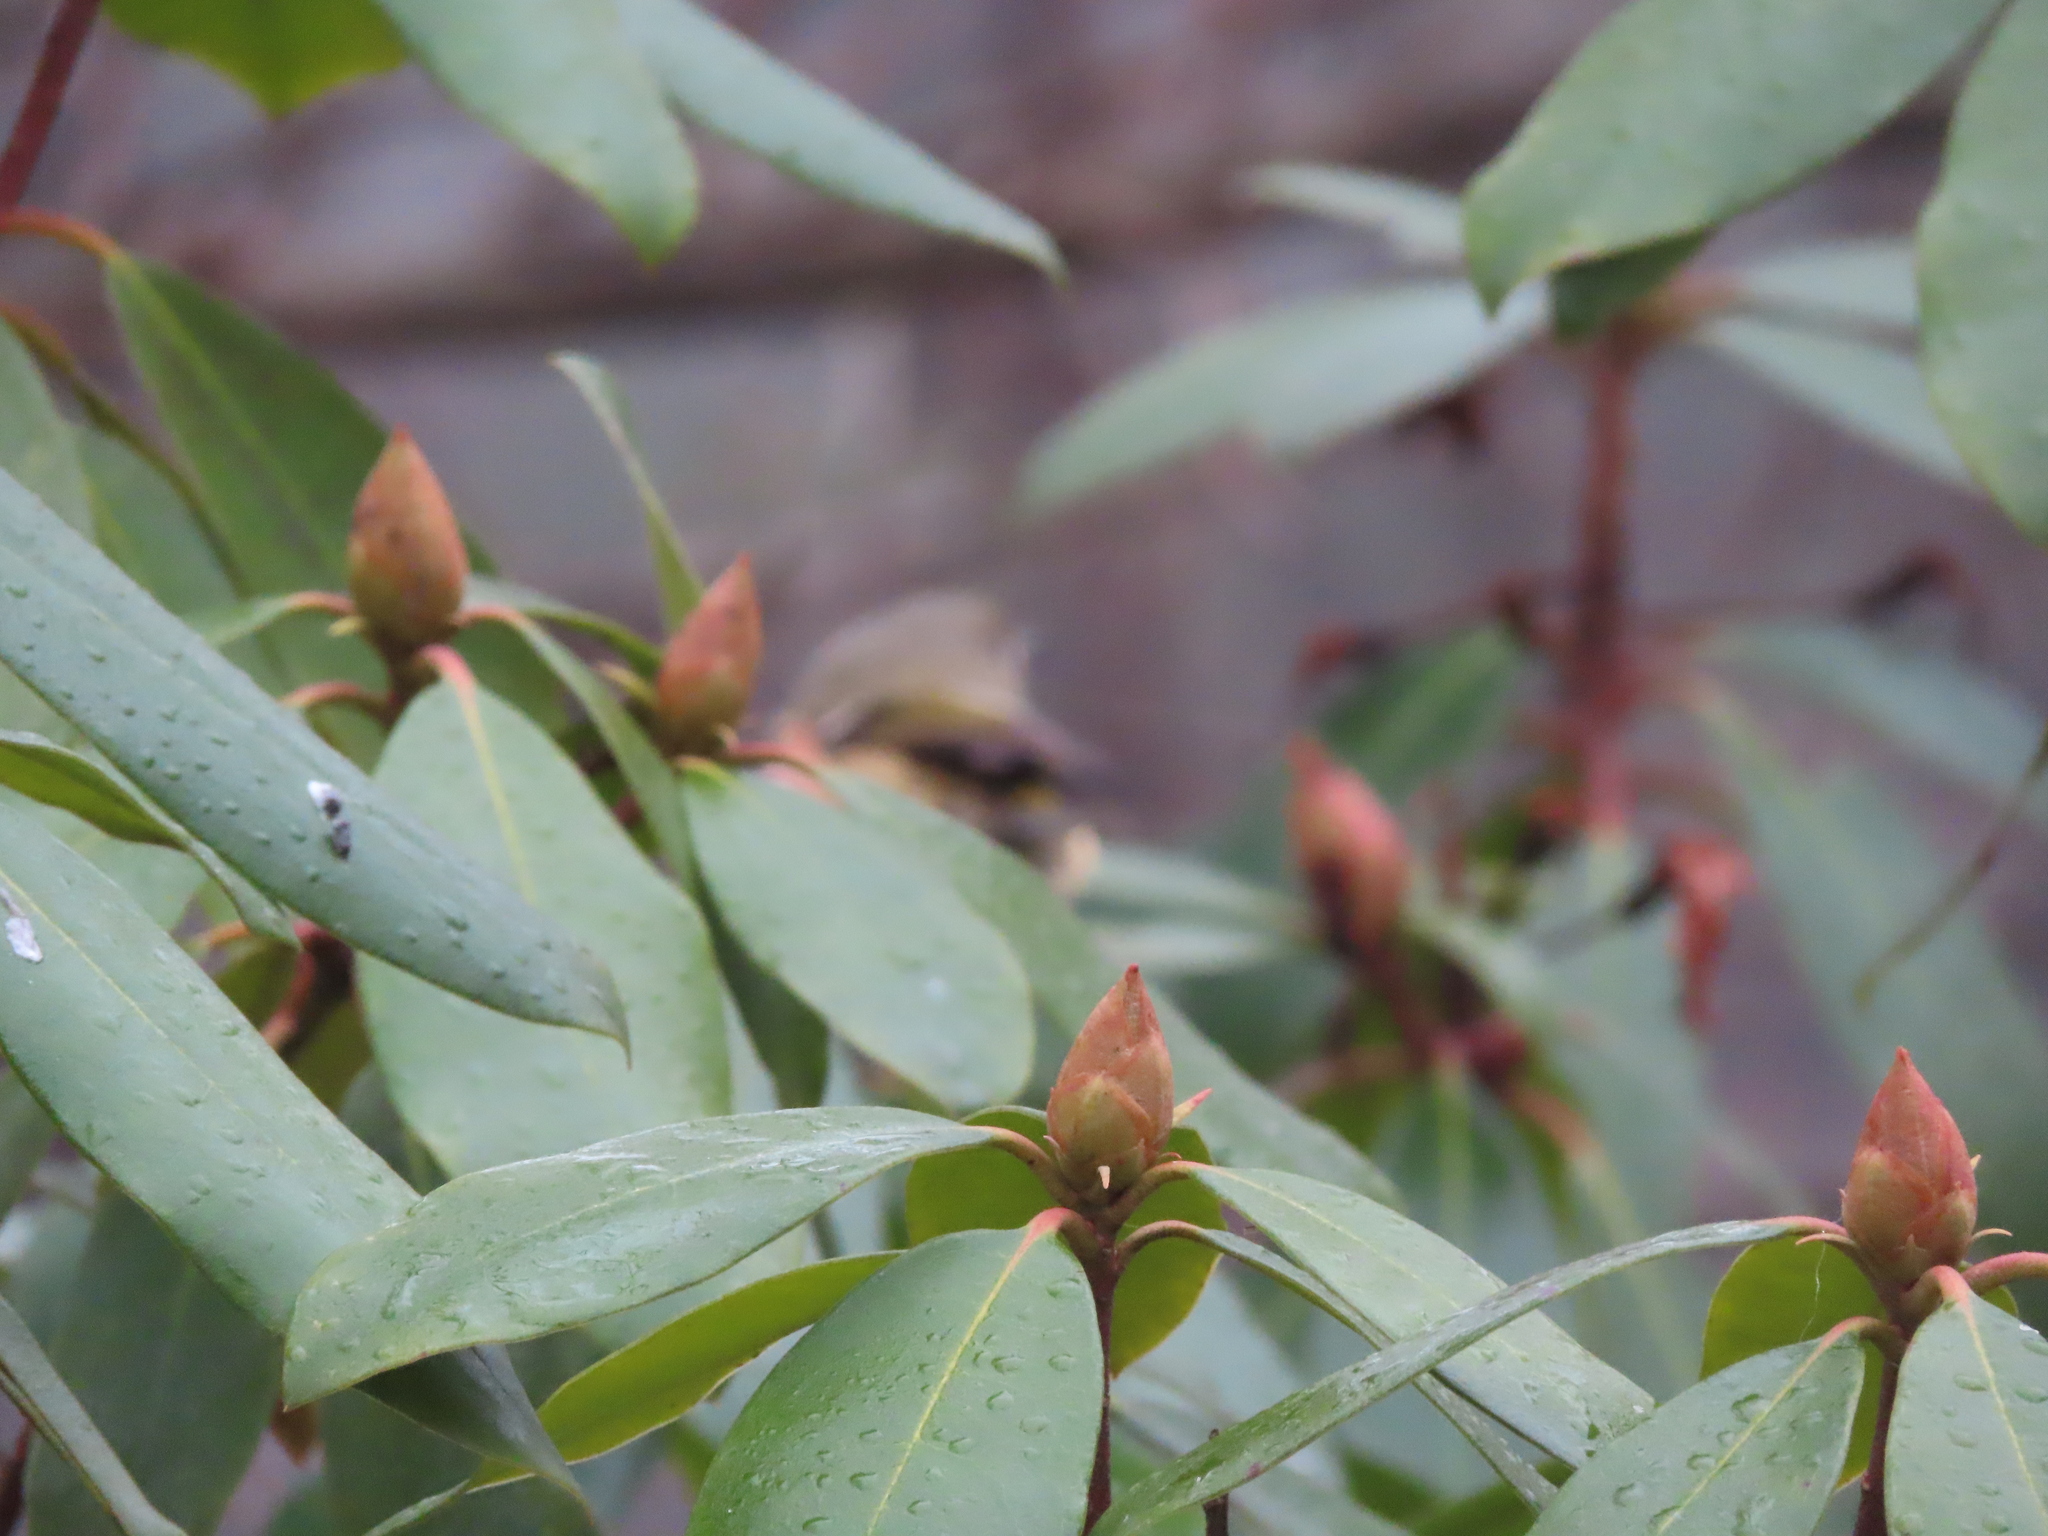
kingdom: Animalia
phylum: Chordata
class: Aves
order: Passeriformes
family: Regulidae
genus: Regulus
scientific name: Regulus calendula
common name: Ruby-crowned kinglet
